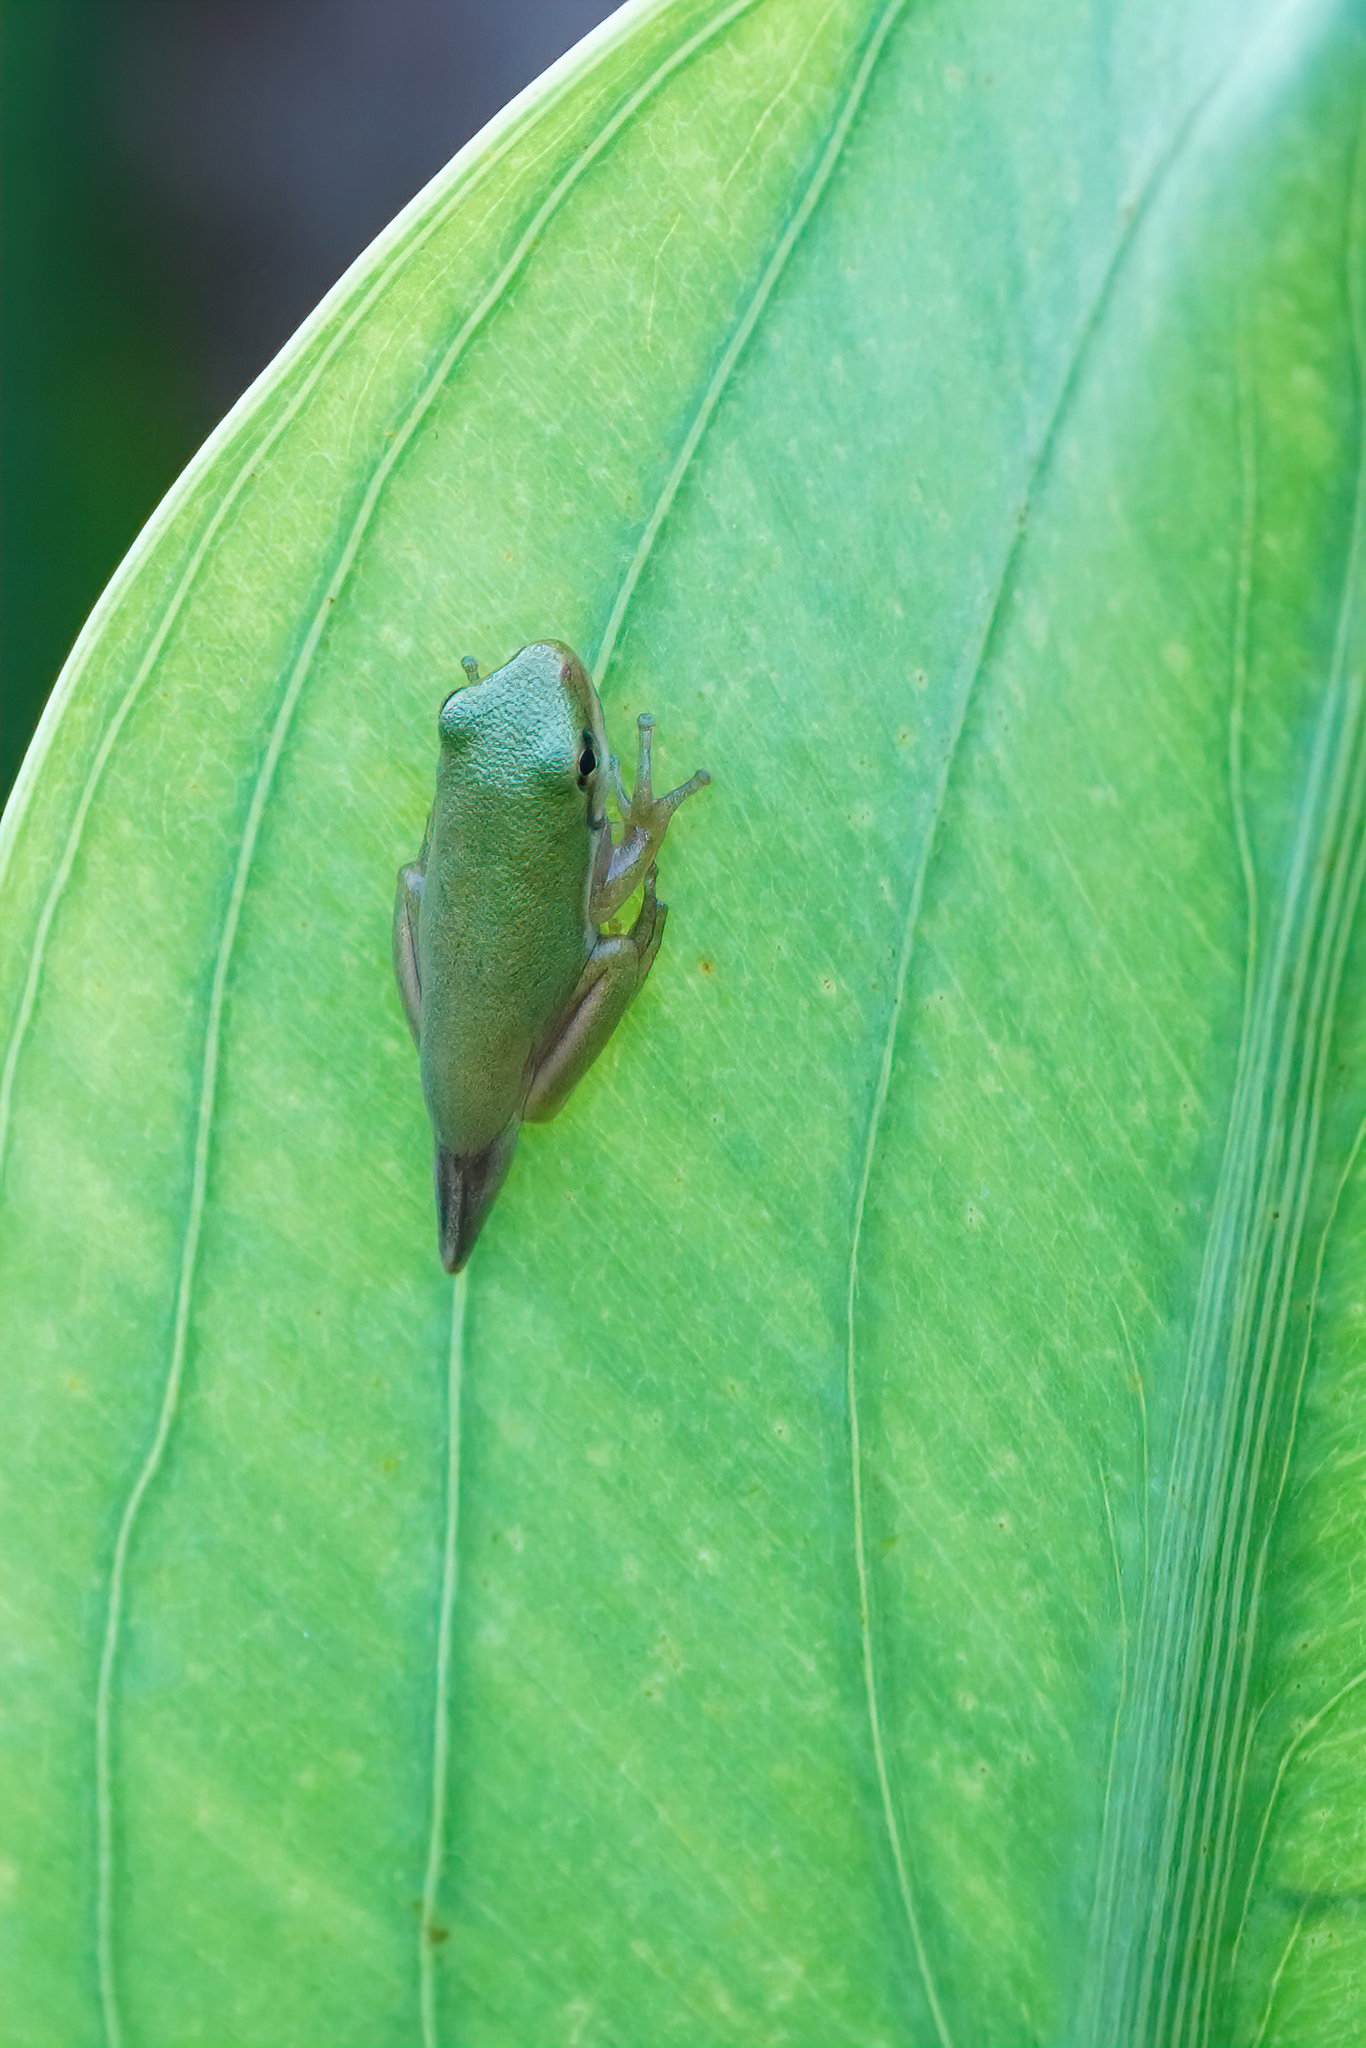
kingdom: Animalia
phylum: Chordata
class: Amphibia
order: Anura
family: Hylidae
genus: Dryophytes
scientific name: Dryophytes cinereus
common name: Green treefrog
